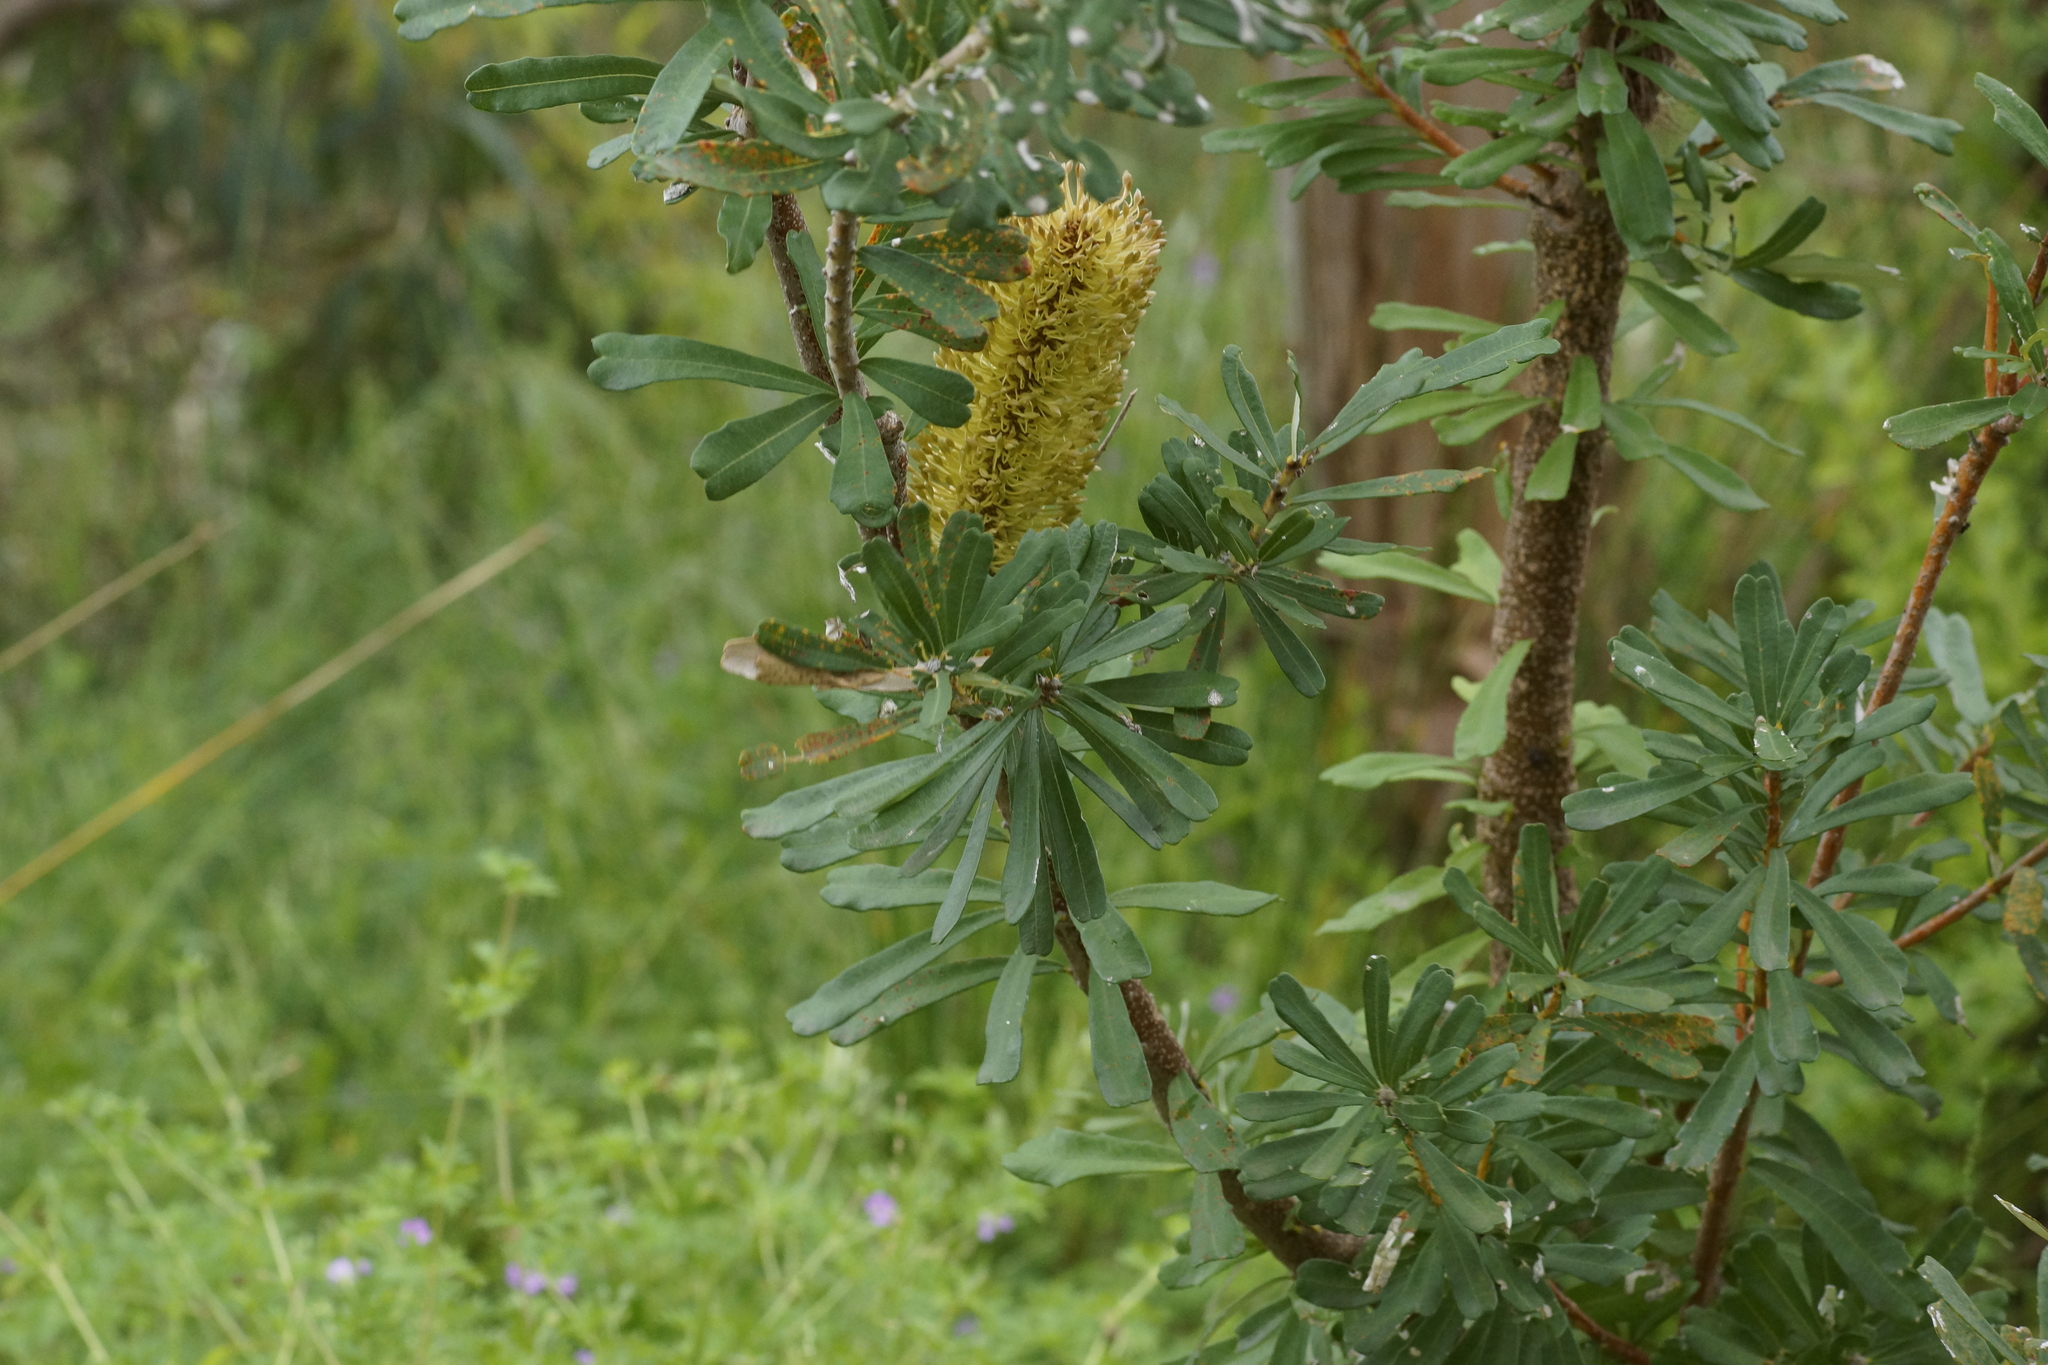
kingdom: Plantae
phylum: Tracheophyta
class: Magnoliopsida
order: Proteales
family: Proteaceae
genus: Banksia
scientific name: Banksia marginata
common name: Silver banksia
